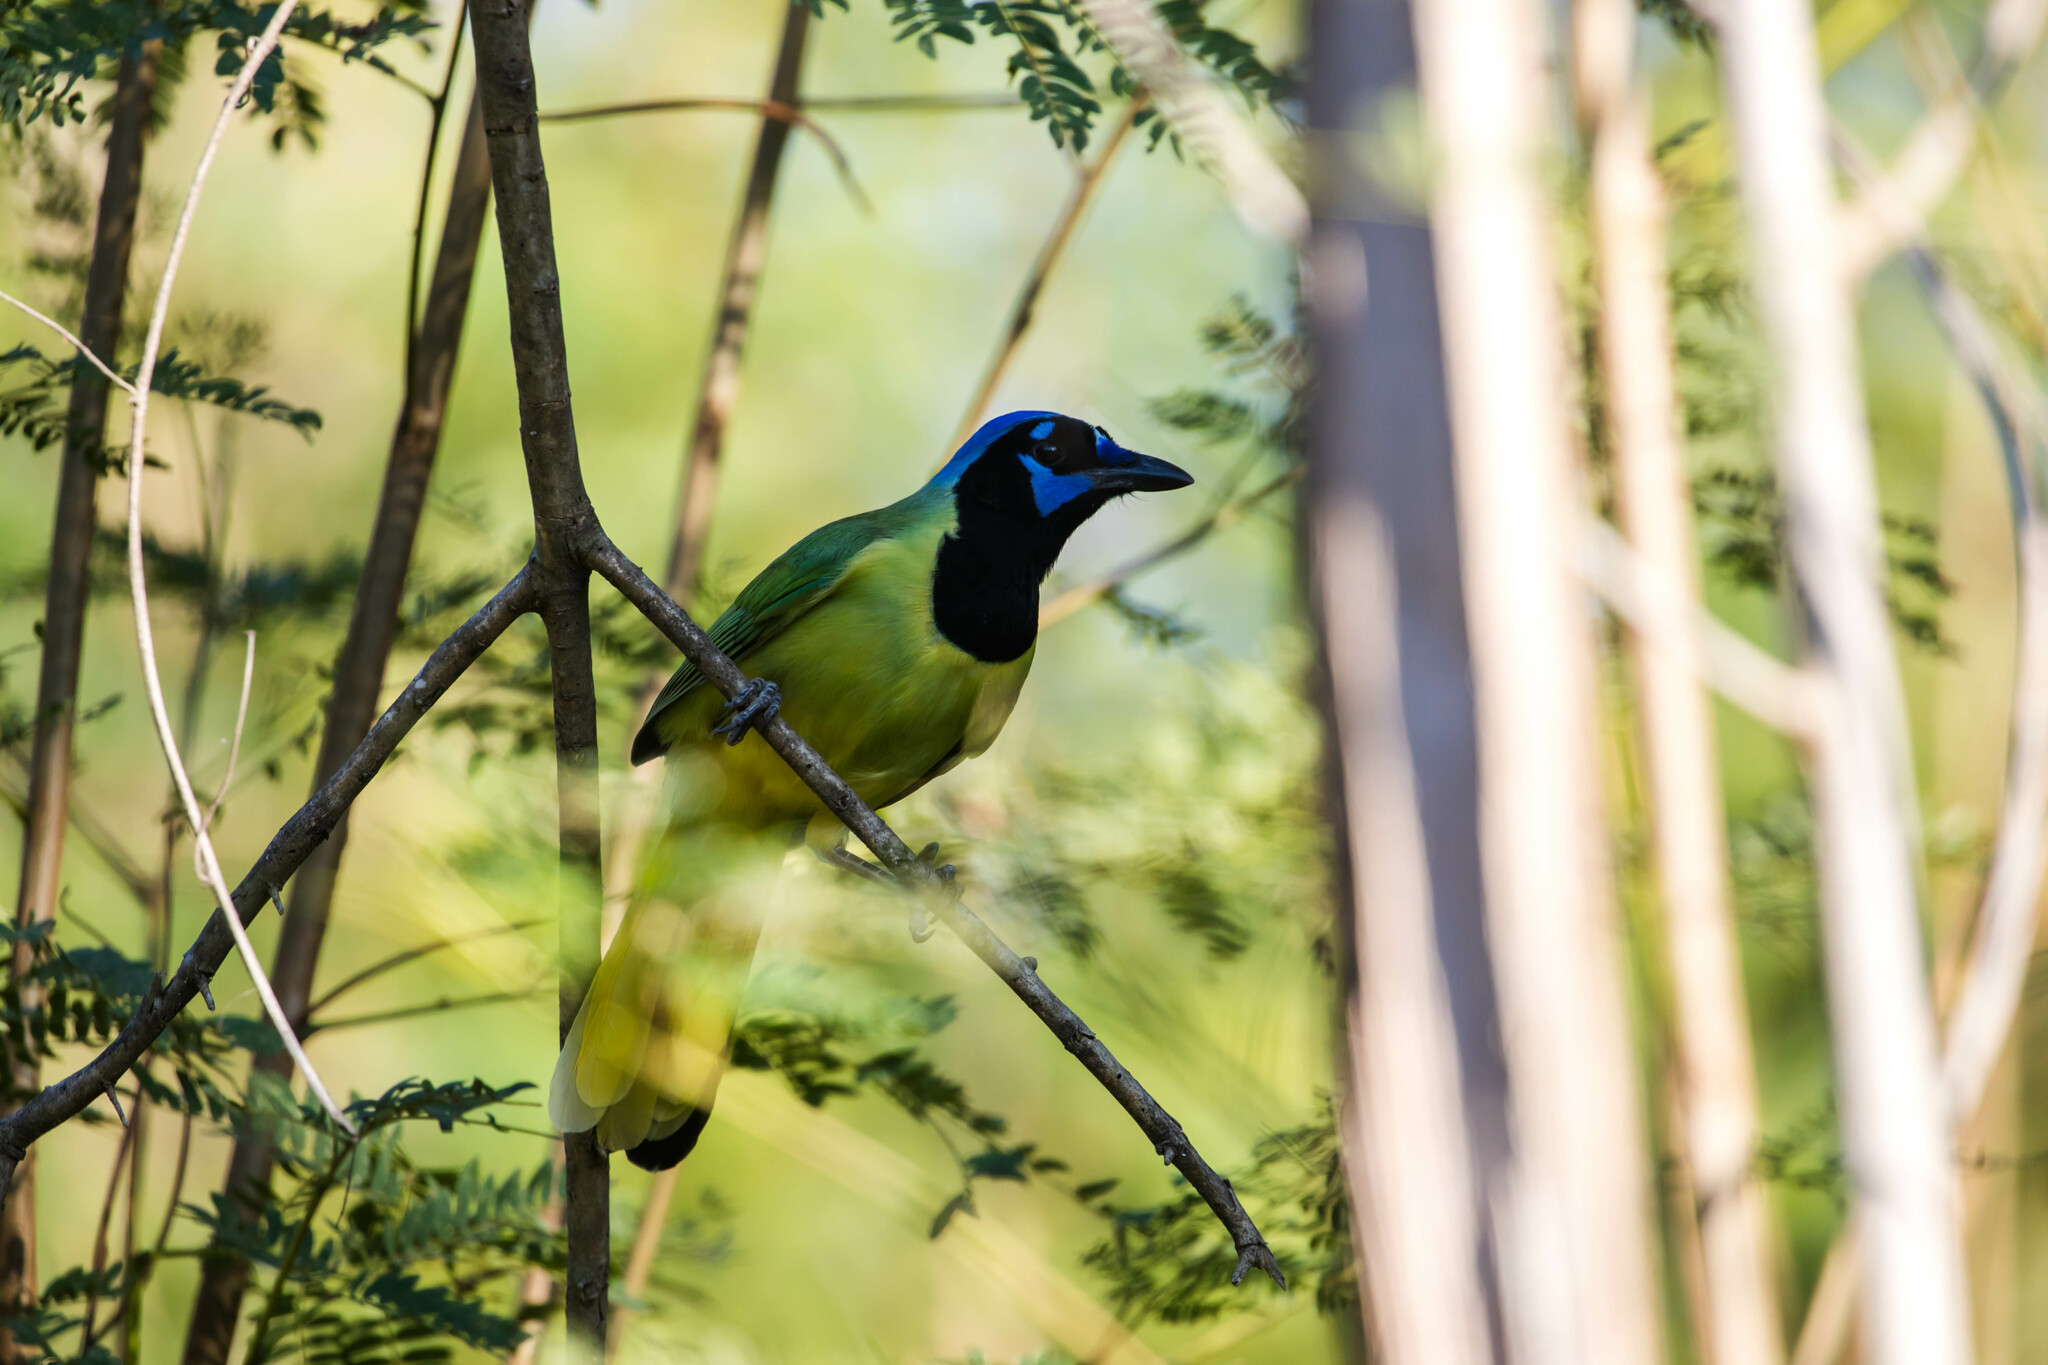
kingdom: Animalia
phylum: Chordata
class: Aves
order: Passeriformes
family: Corvidae
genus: Cyanocorax
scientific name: Cyanocorax yncas
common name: Green jay
